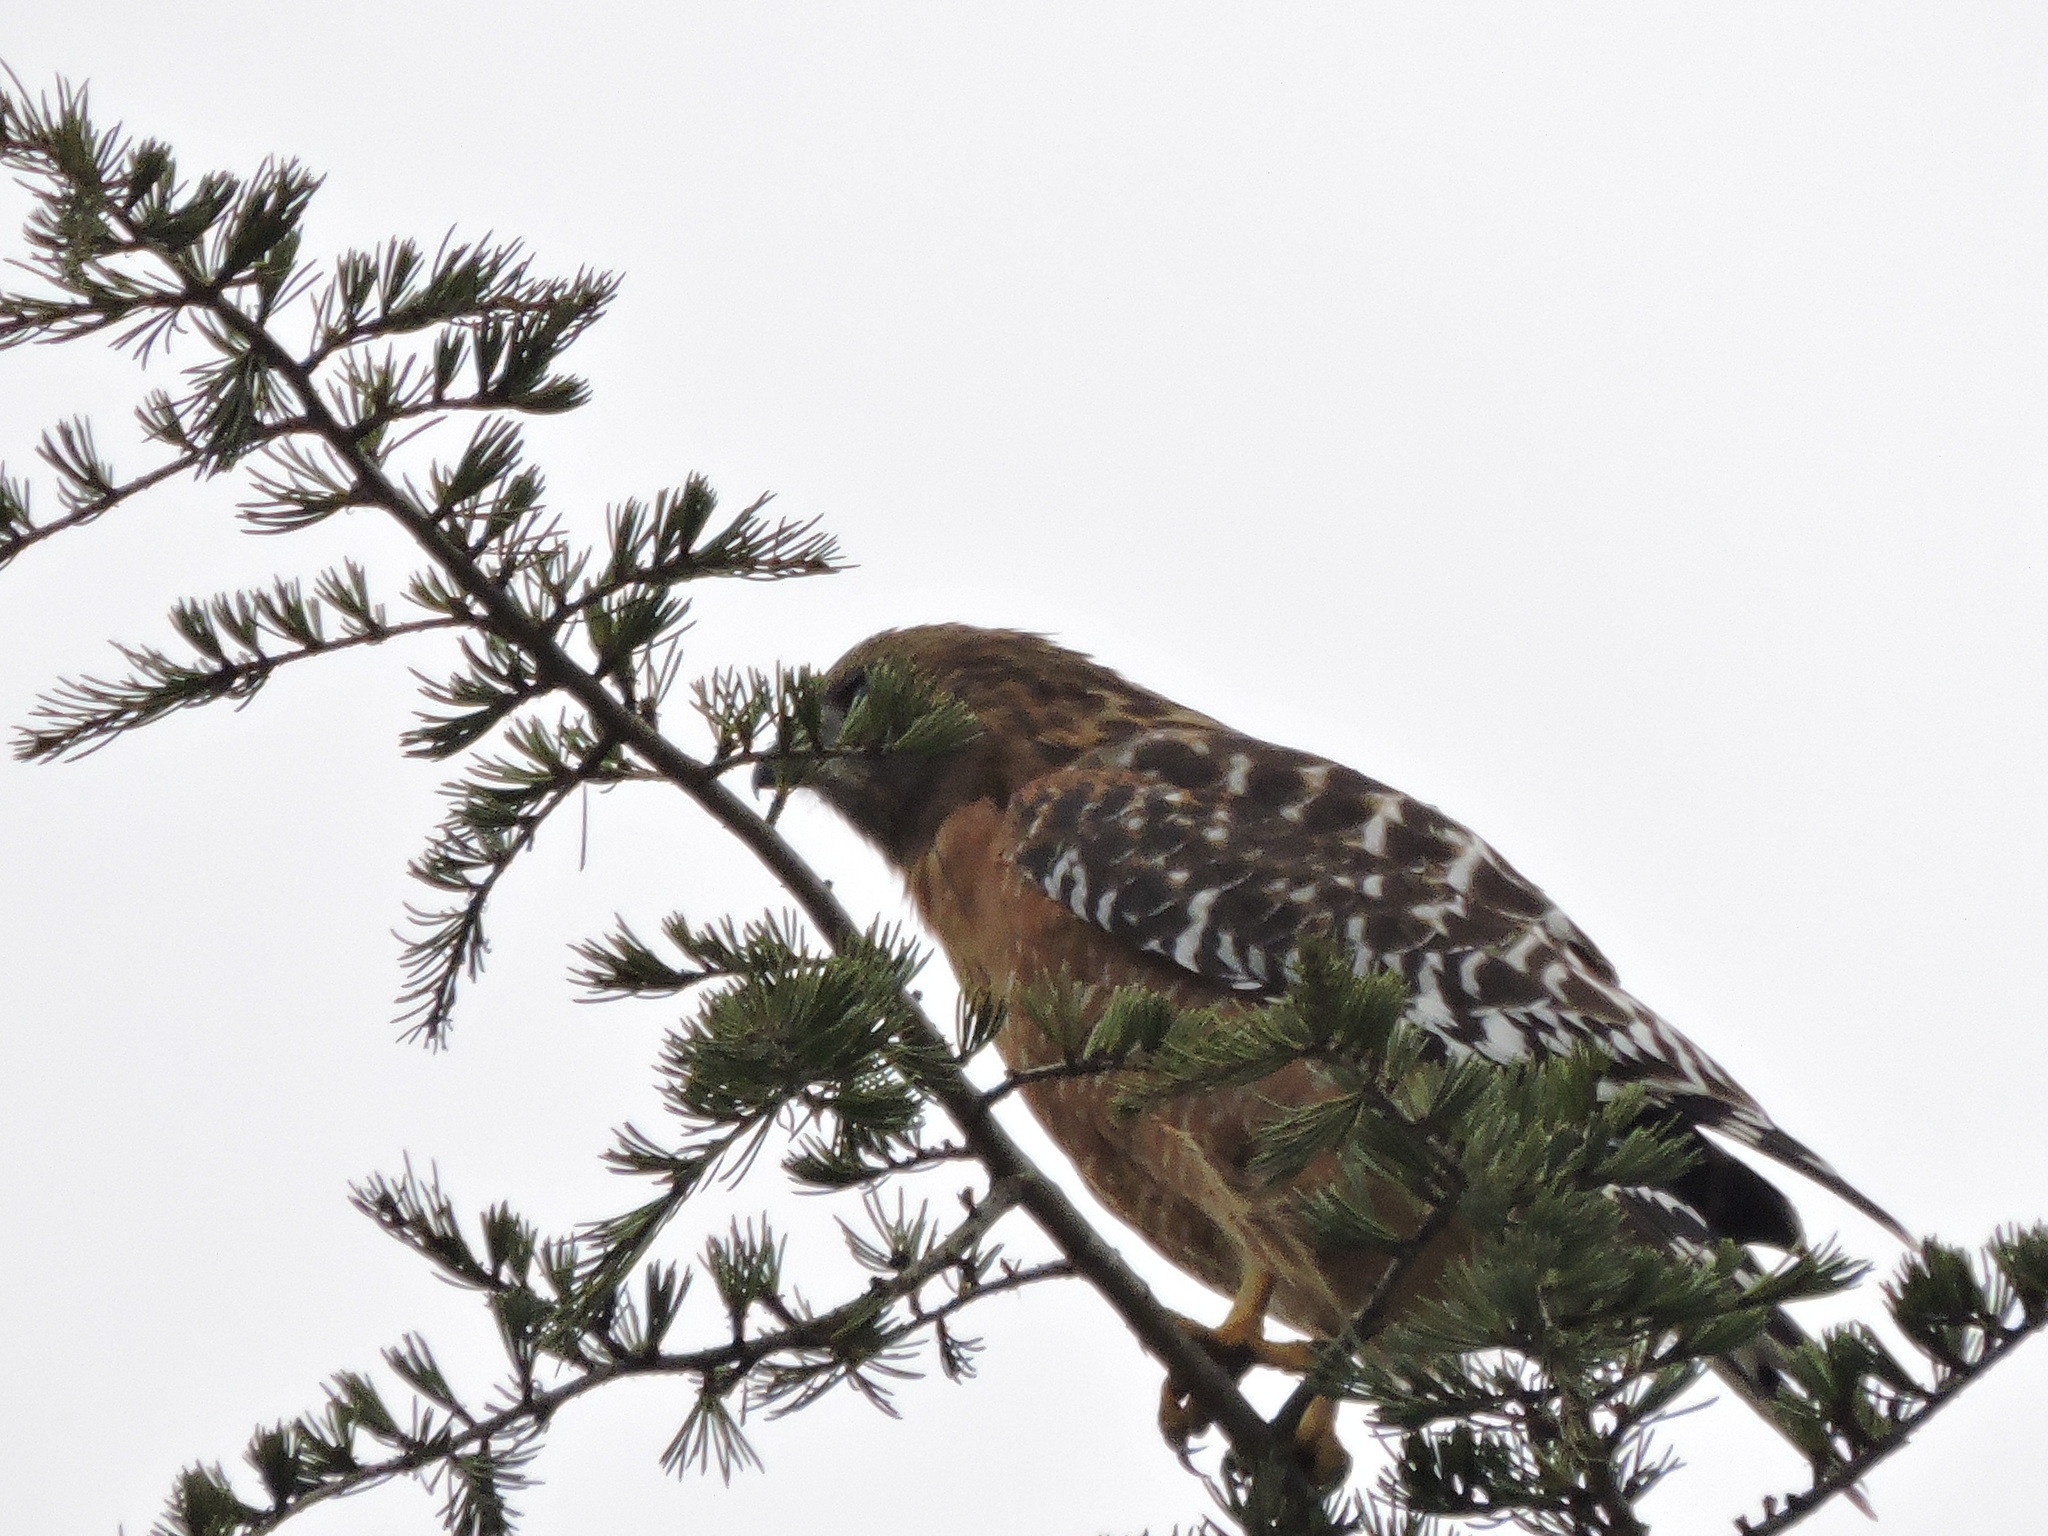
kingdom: Animalia
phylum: Chordata
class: Aves
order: Accipitriformes
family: Accipitridae
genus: Buteo
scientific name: Buteo lineatus
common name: Red-shouldered hawk
